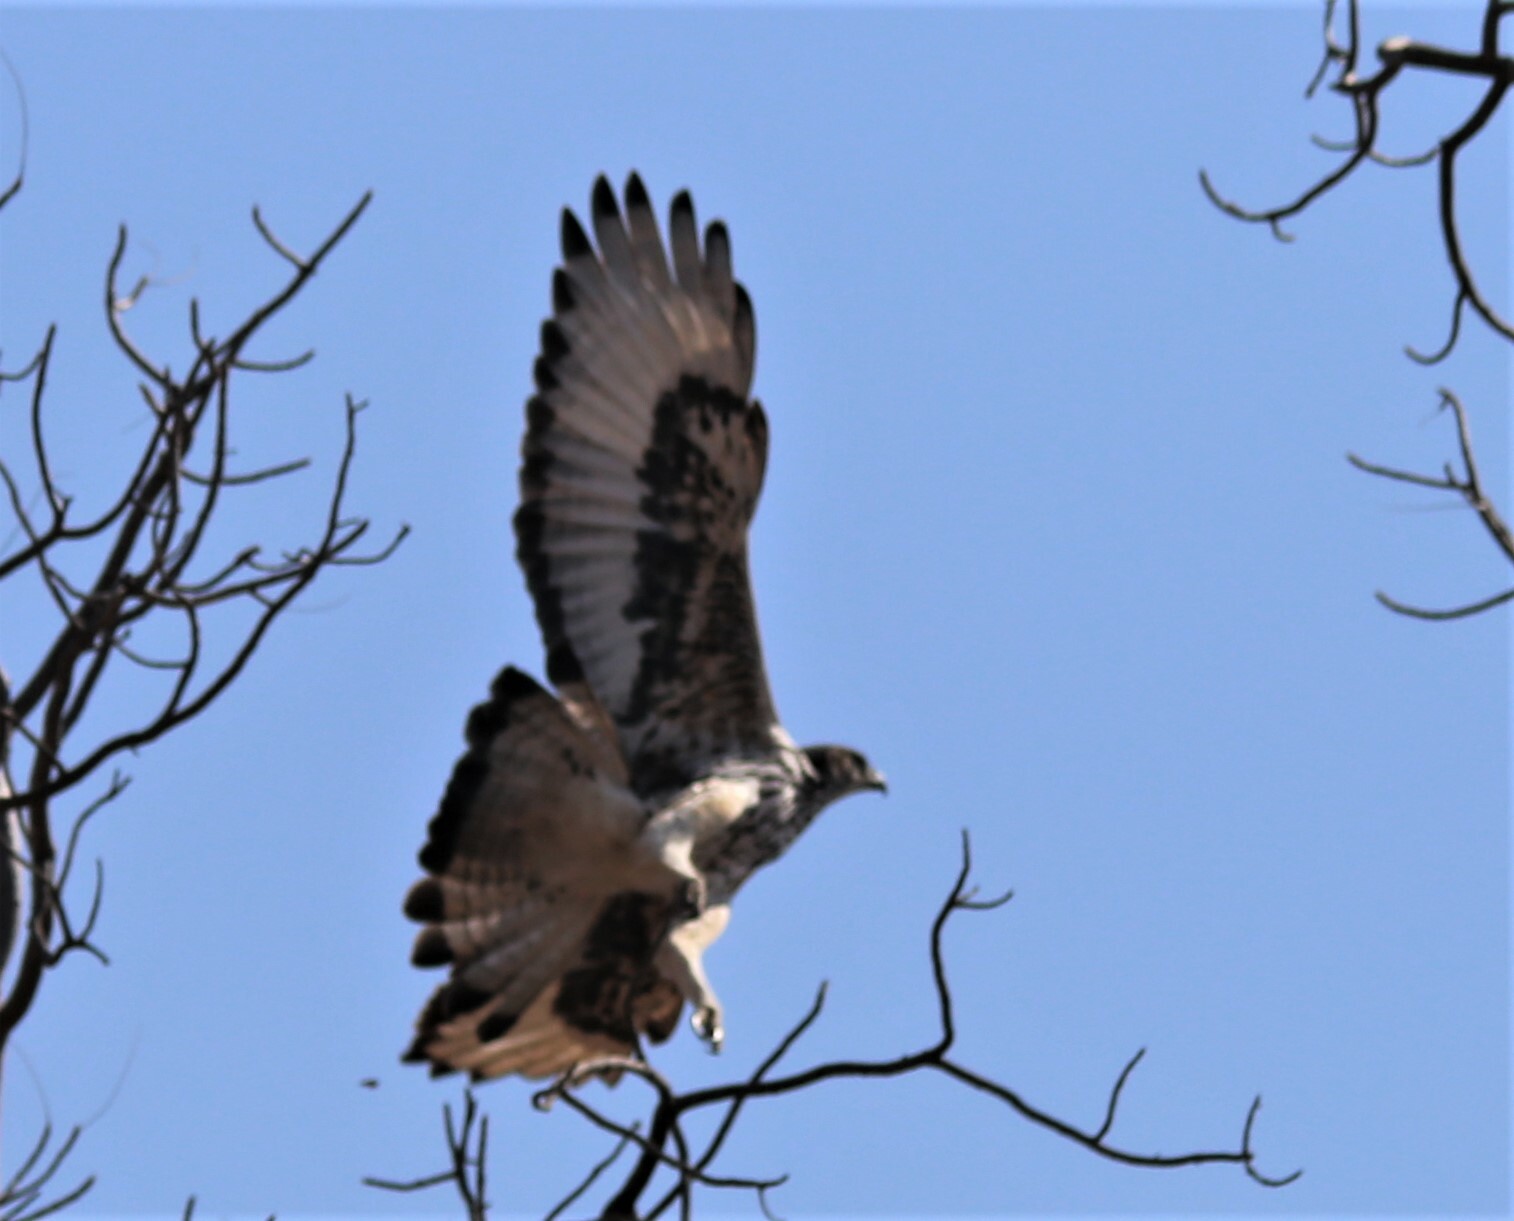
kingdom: Animalia
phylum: Chordata
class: Aves
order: Accipitriformes
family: Accipitridae
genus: Aquila
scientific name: Aquila spilogaster
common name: African hawk-eagle
